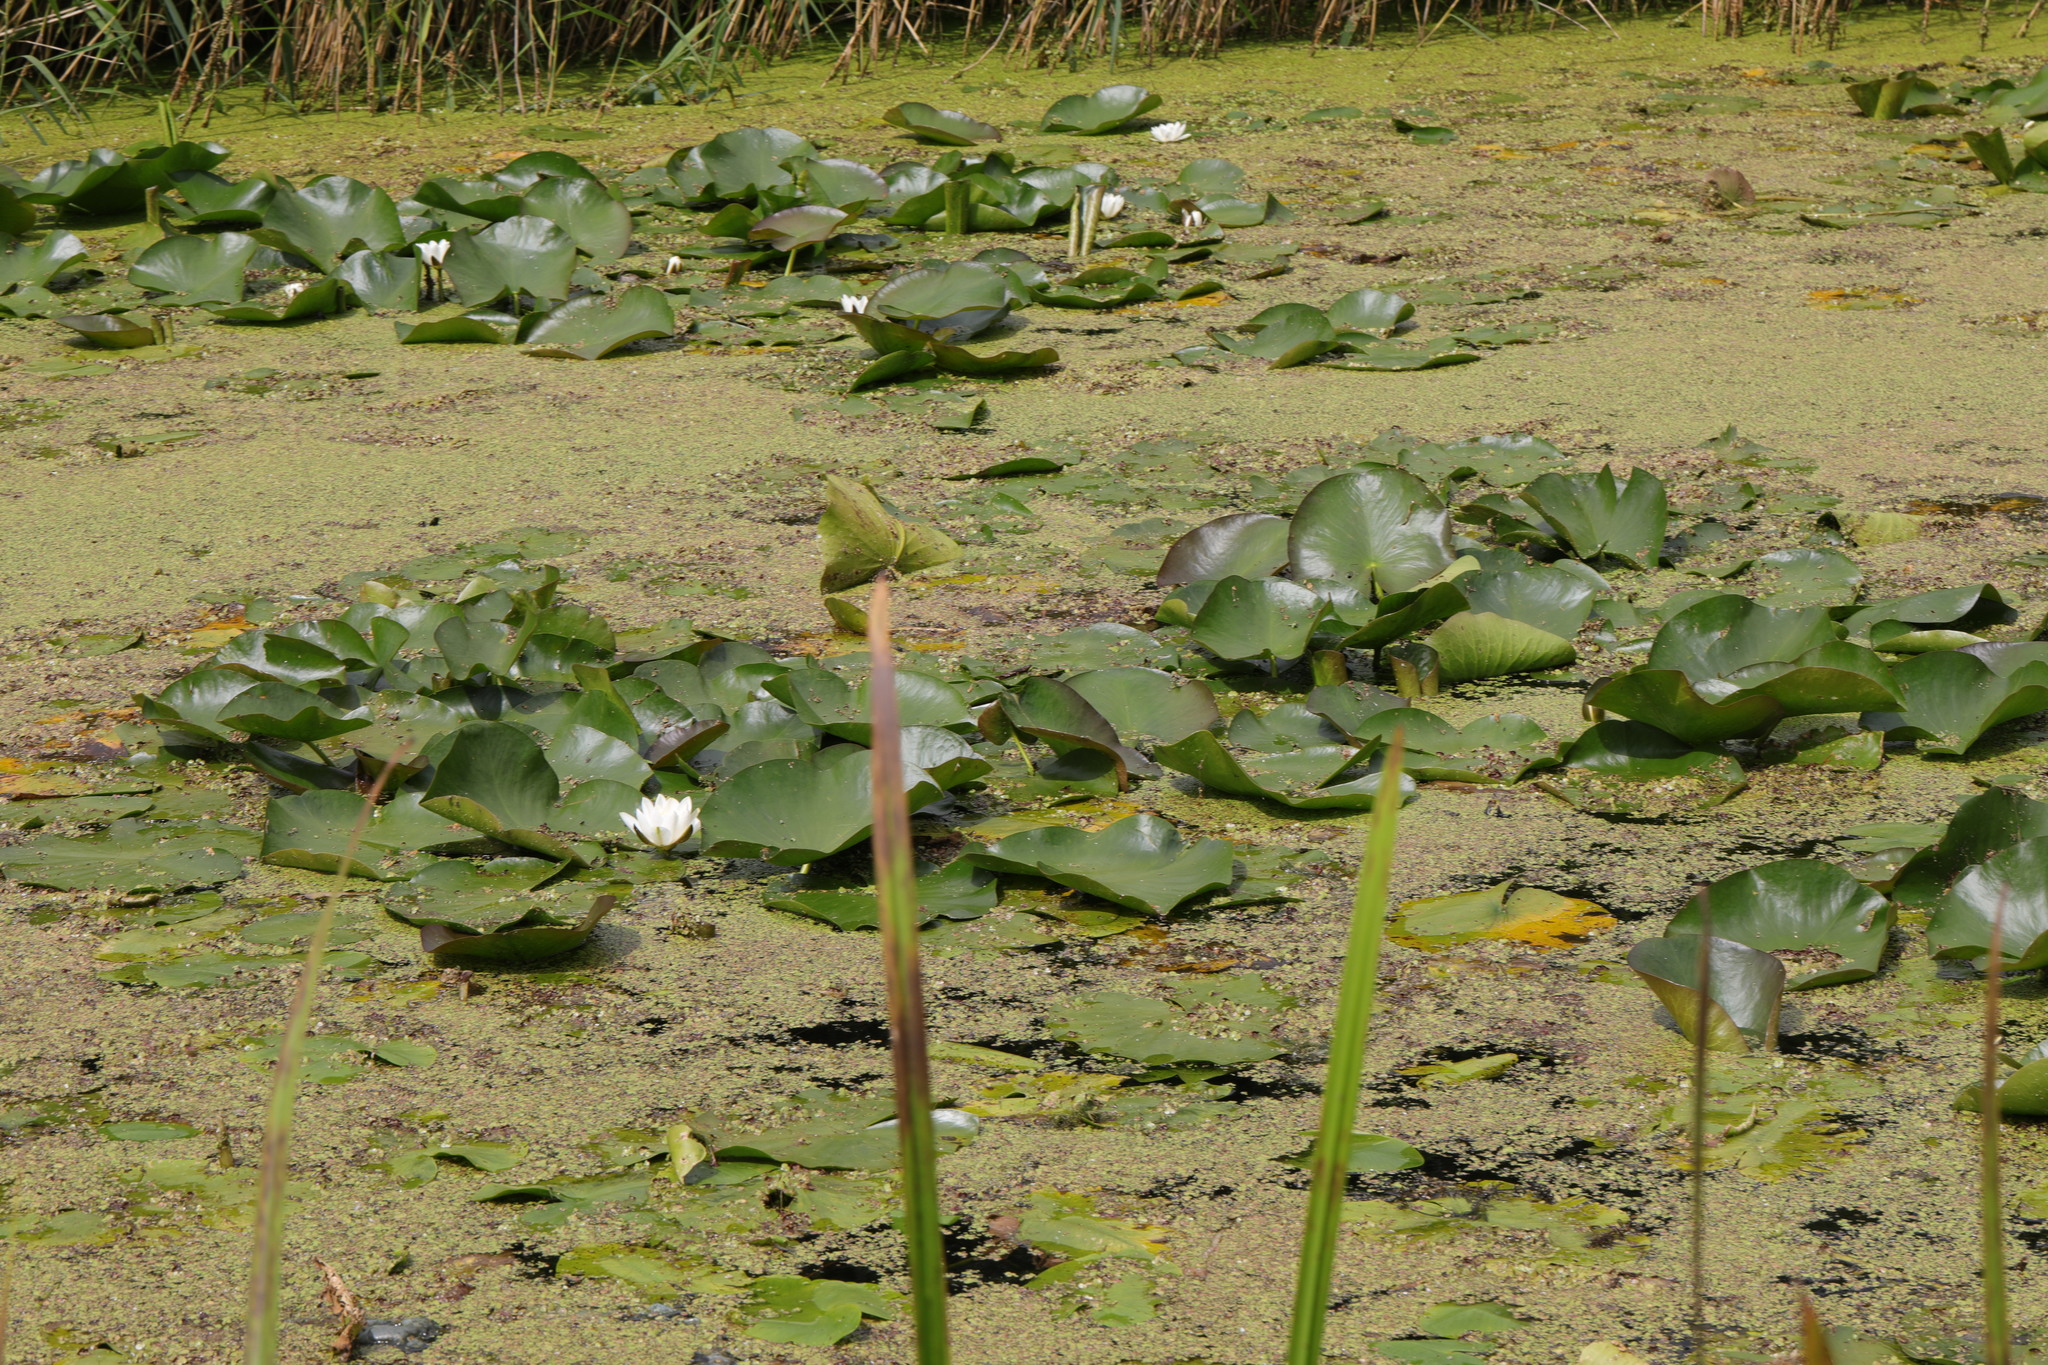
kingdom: Plantae
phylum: Tracheophyta
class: Magnoliopsida
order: Nymphaeales
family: Nymphaeaceae
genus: Nymphaea
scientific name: Nymphaea alba
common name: White water-lily
